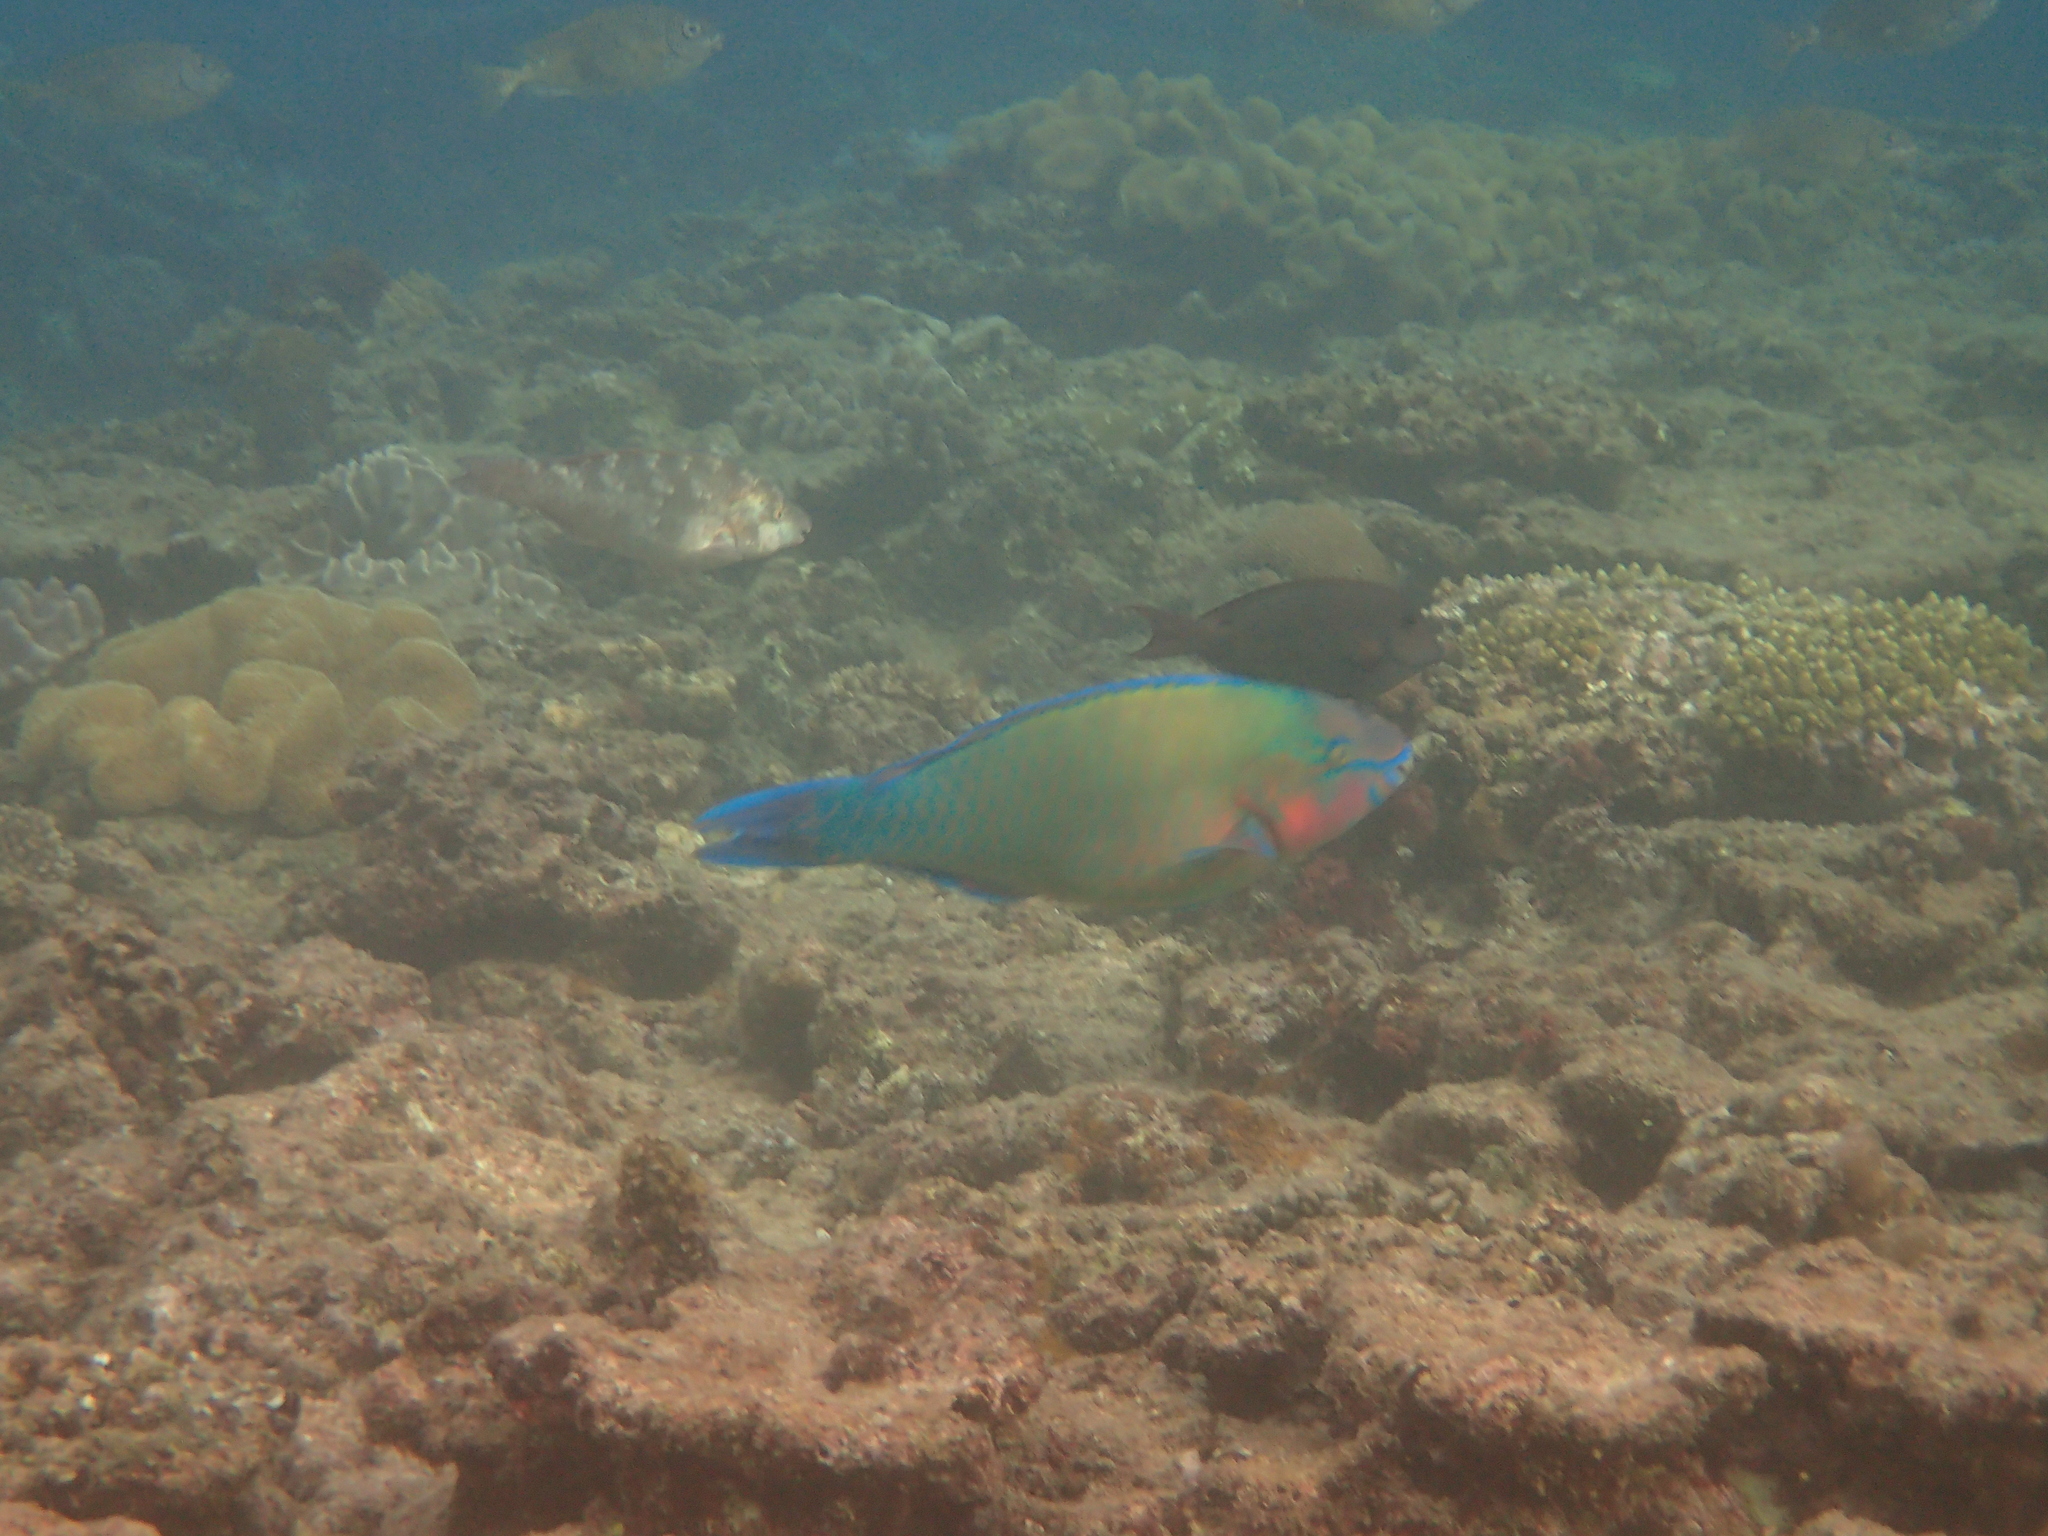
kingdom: Animalia
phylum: Chordata
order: Perciformes
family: Scaridae
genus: Scarus
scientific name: Scarus psittacus
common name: Palenose parrotfish
